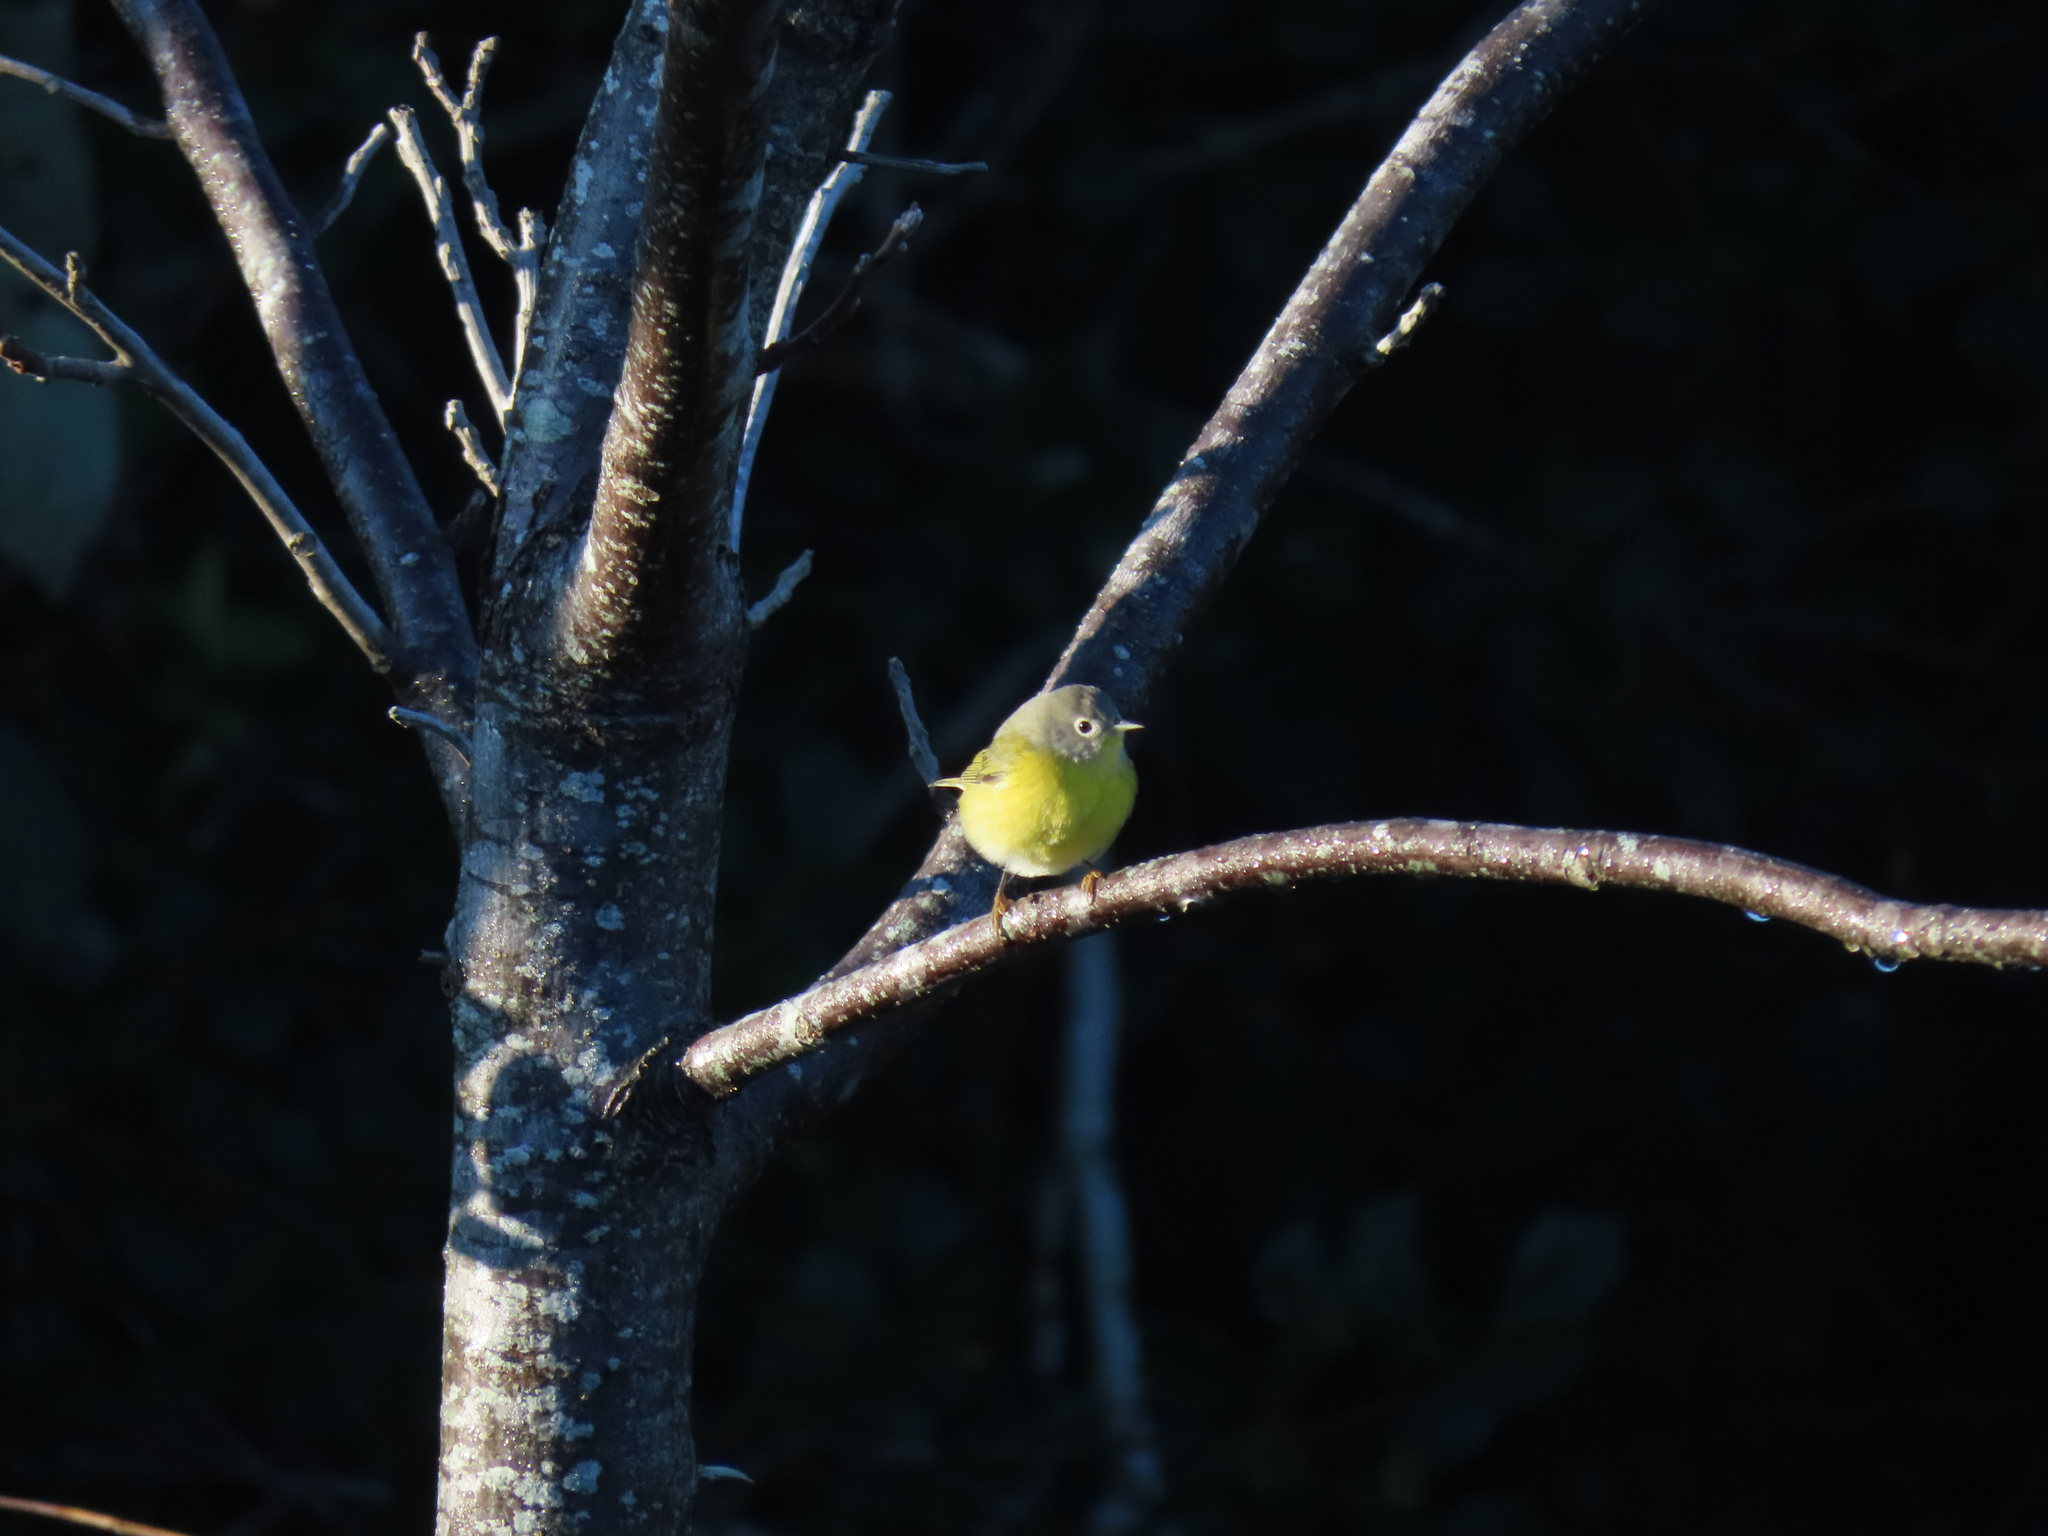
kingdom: Animalia
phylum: Chordata
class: Aves
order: Passeriformes
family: Parulidae
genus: Leiothlypis
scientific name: Leiothlypis ruficapilla
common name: Nashville warbler
